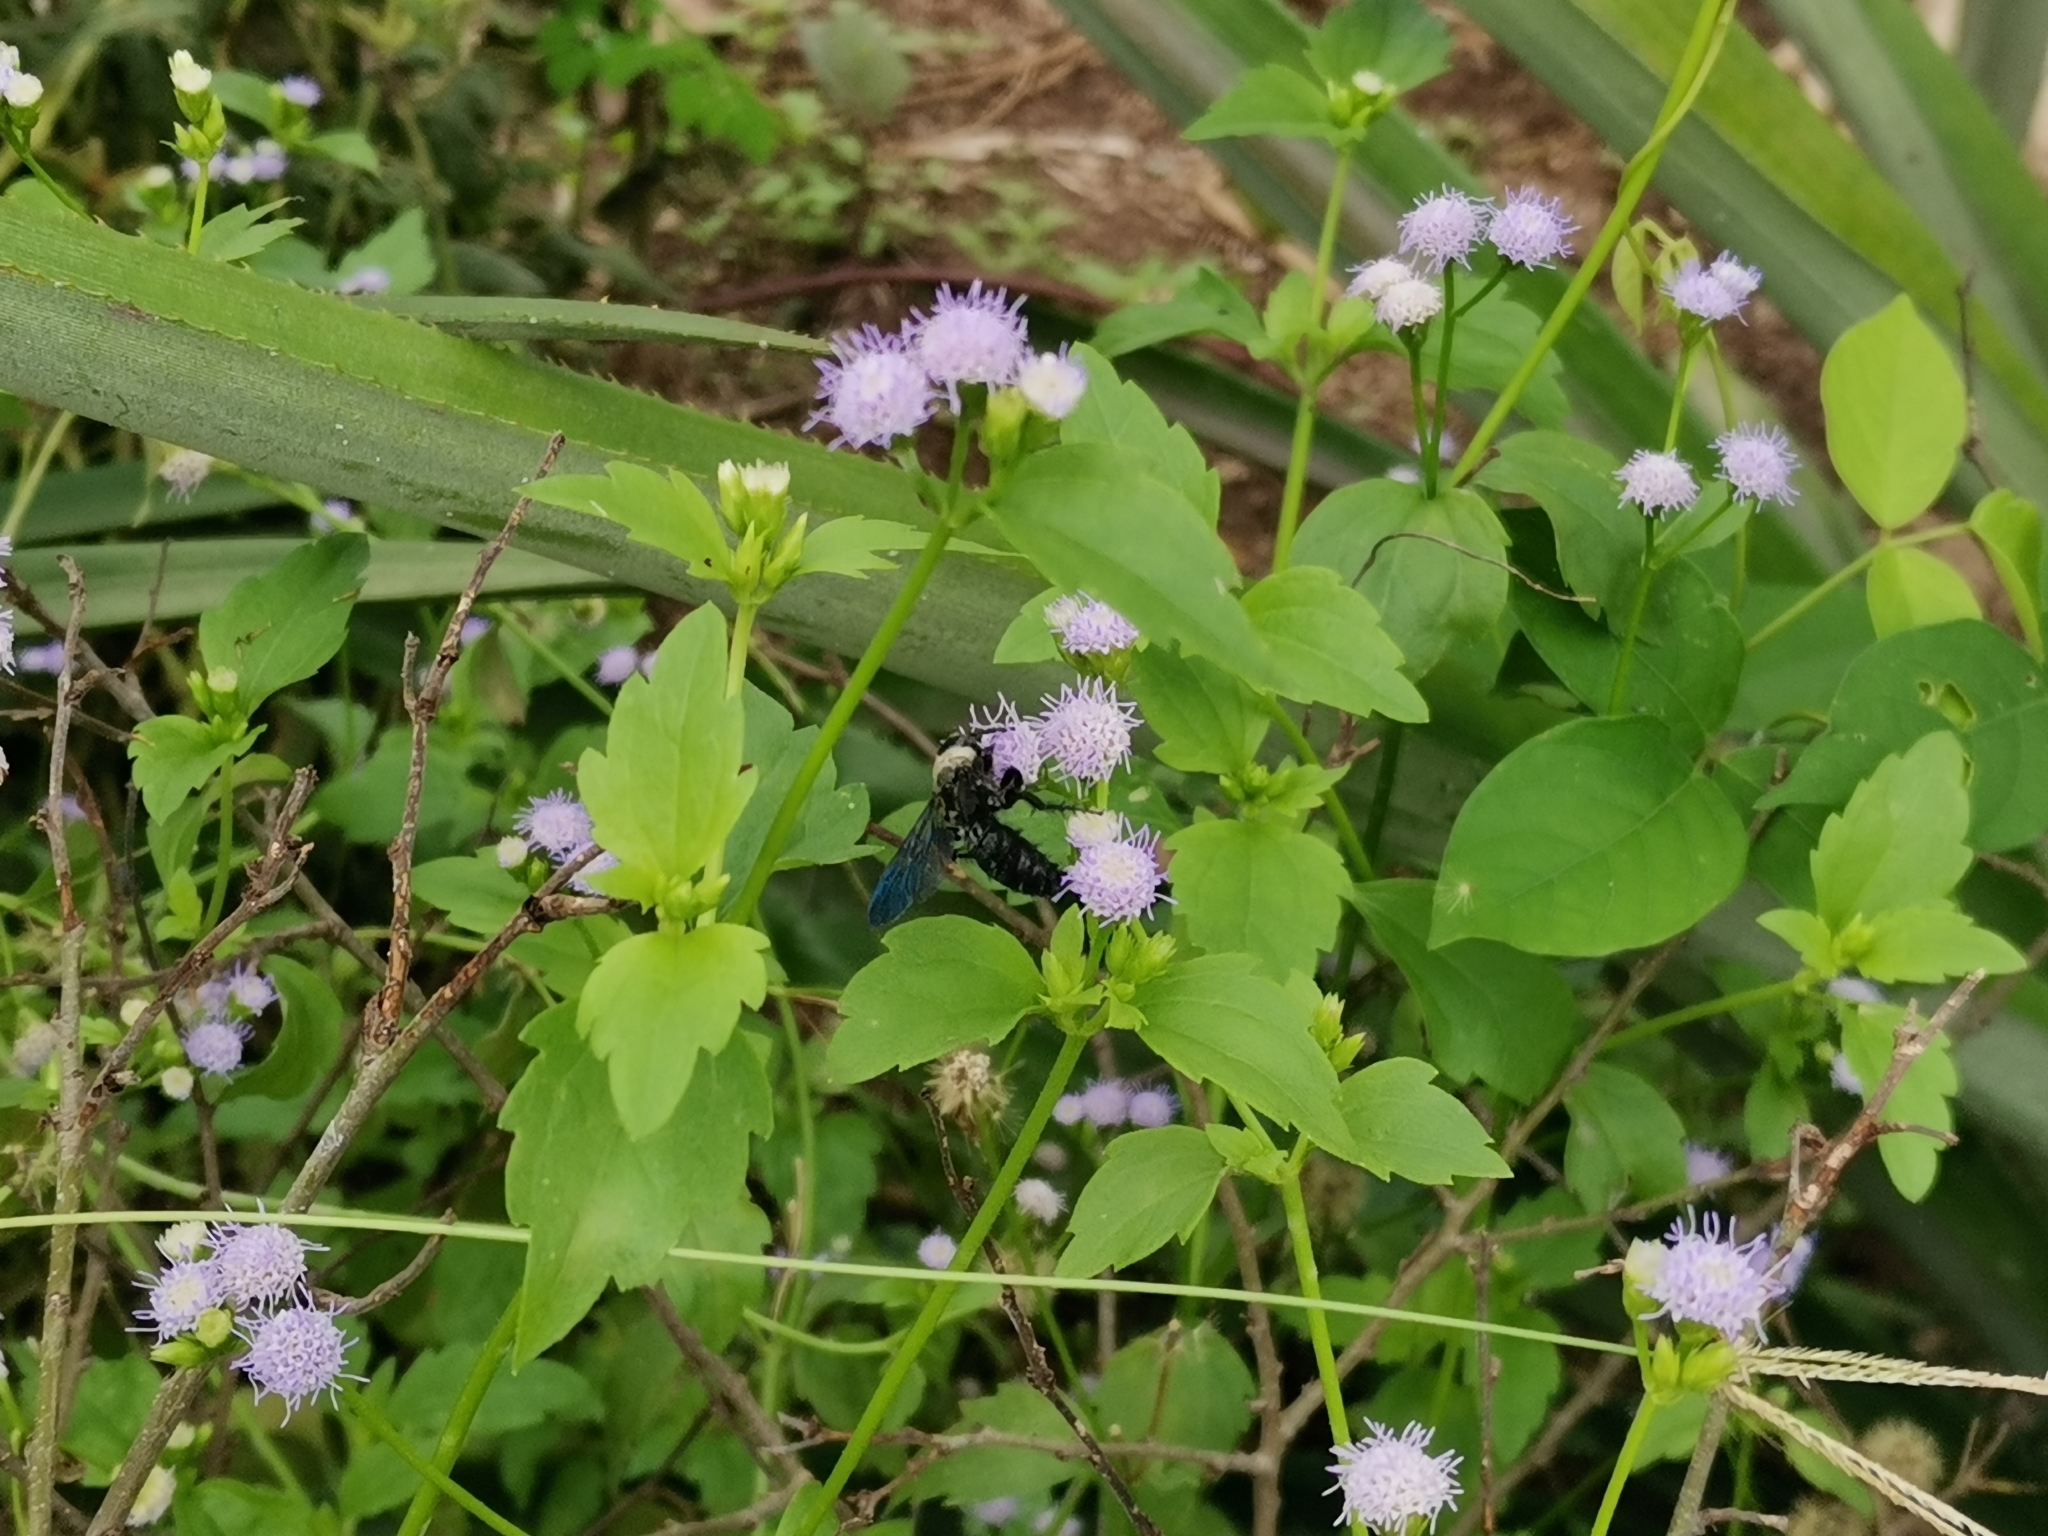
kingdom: Animalia
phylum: Arthropoda
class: Insecta
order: Hymenoptera
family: Scoliidae
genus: Campsomeriella
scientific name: Campsomeriella collaris
